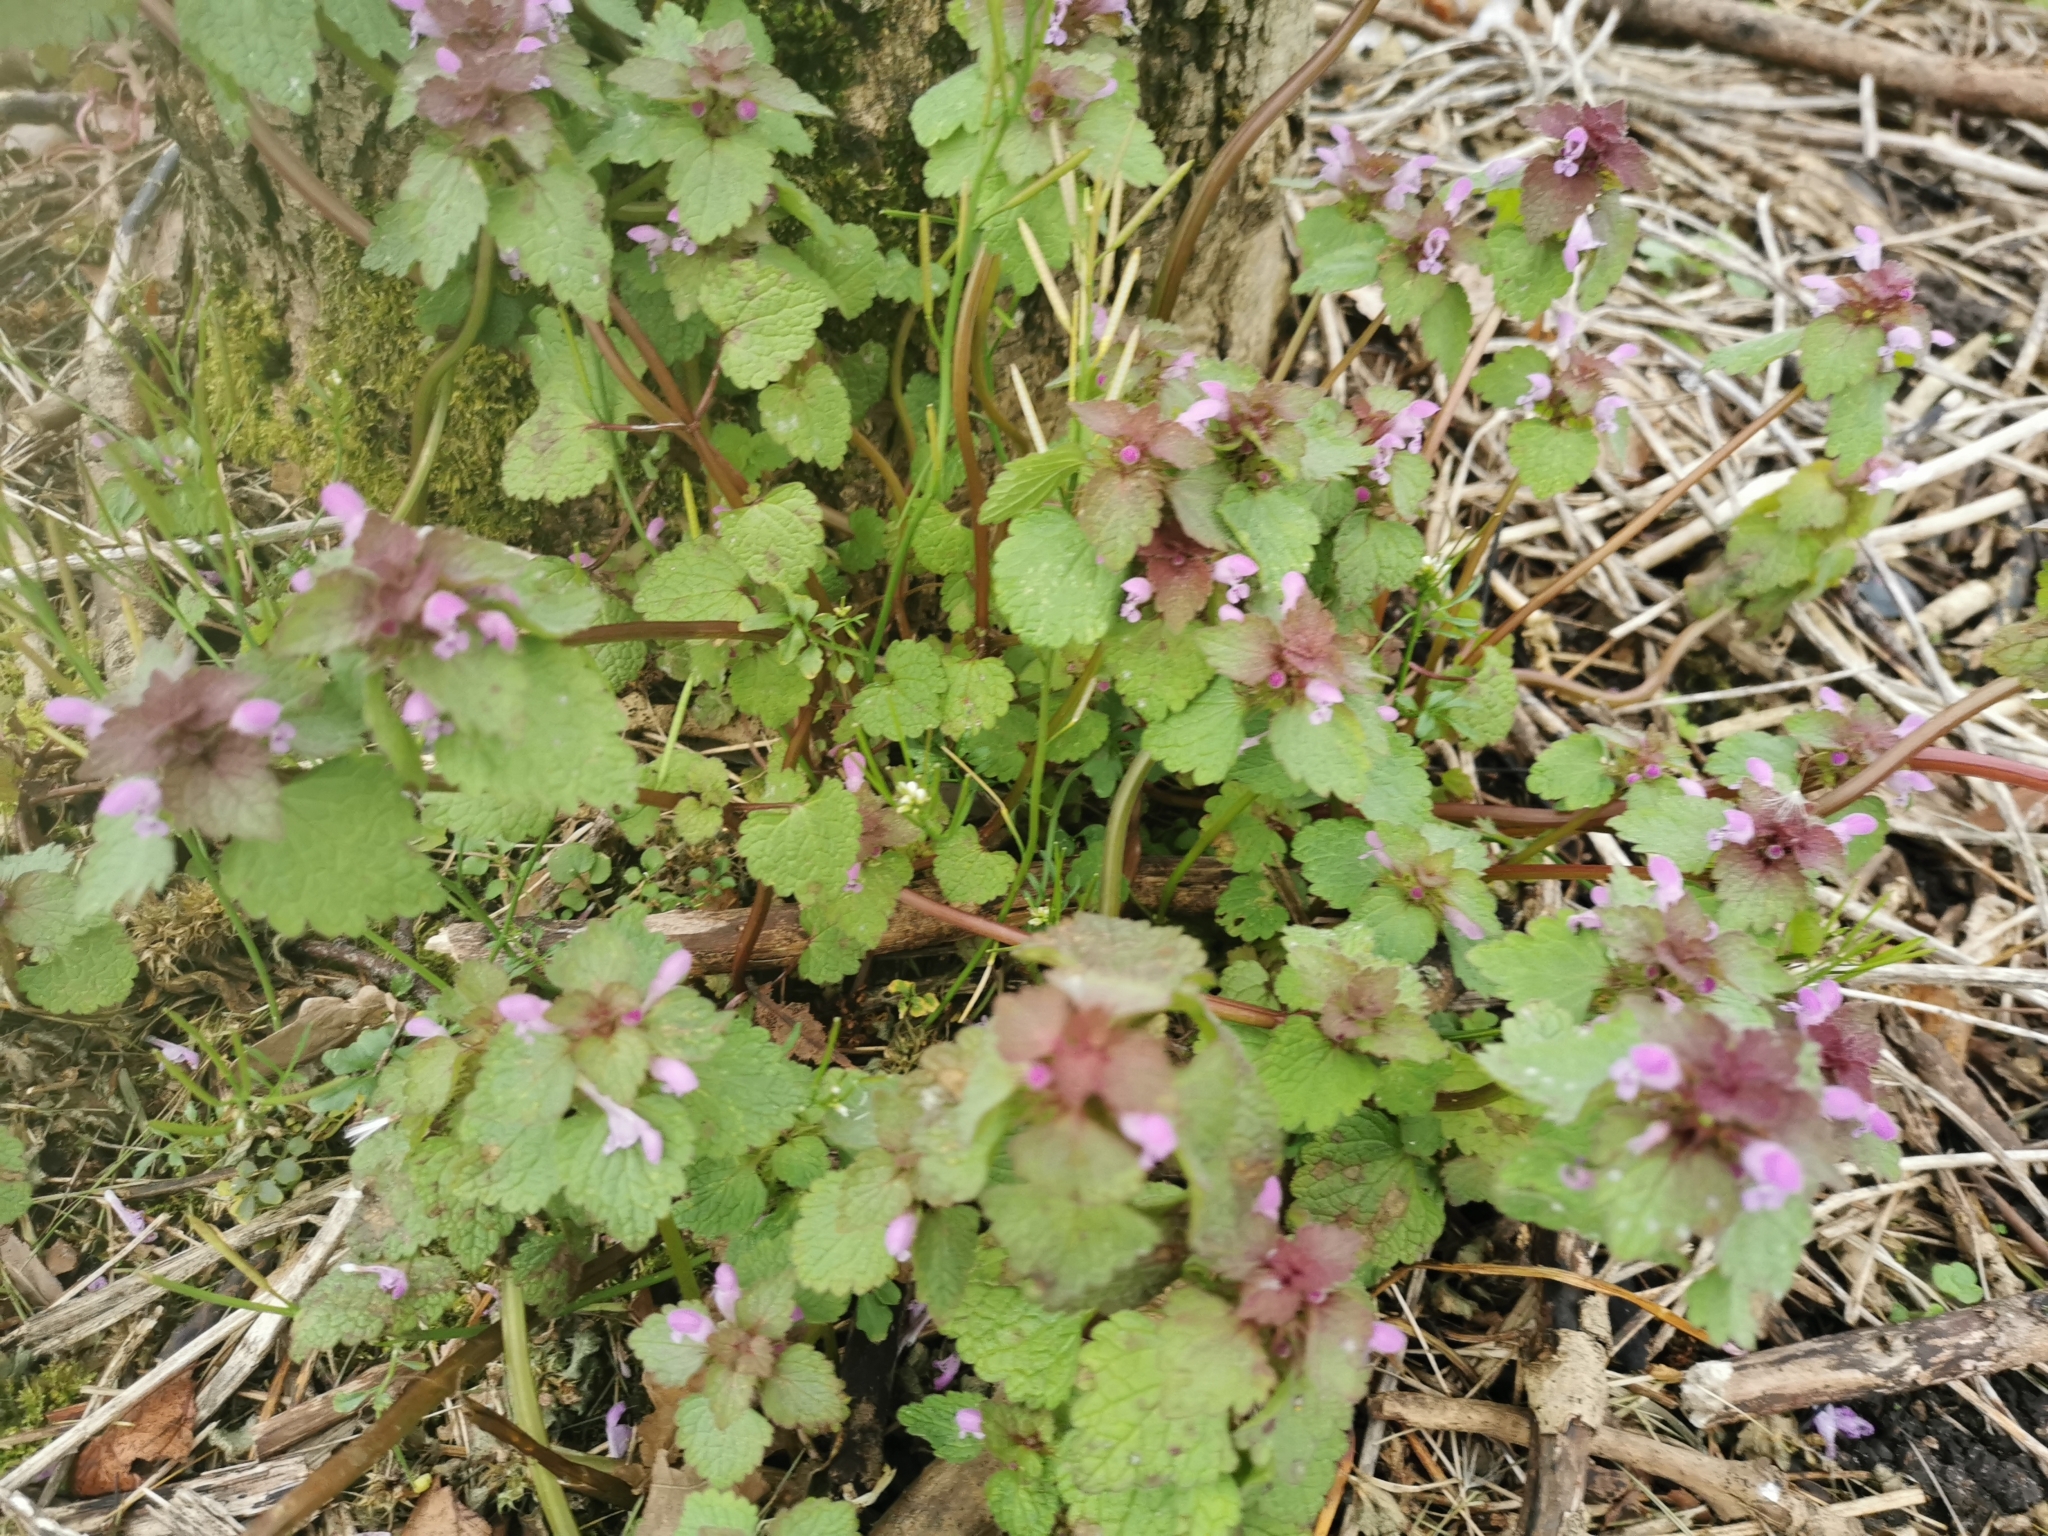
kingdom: Plantae
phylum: Tracheophyta
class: Magnoliopsida
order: Lamiales
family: Lamiaceae
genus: Lamium
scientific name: Lamium purpureum
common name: Red dead-nettle
